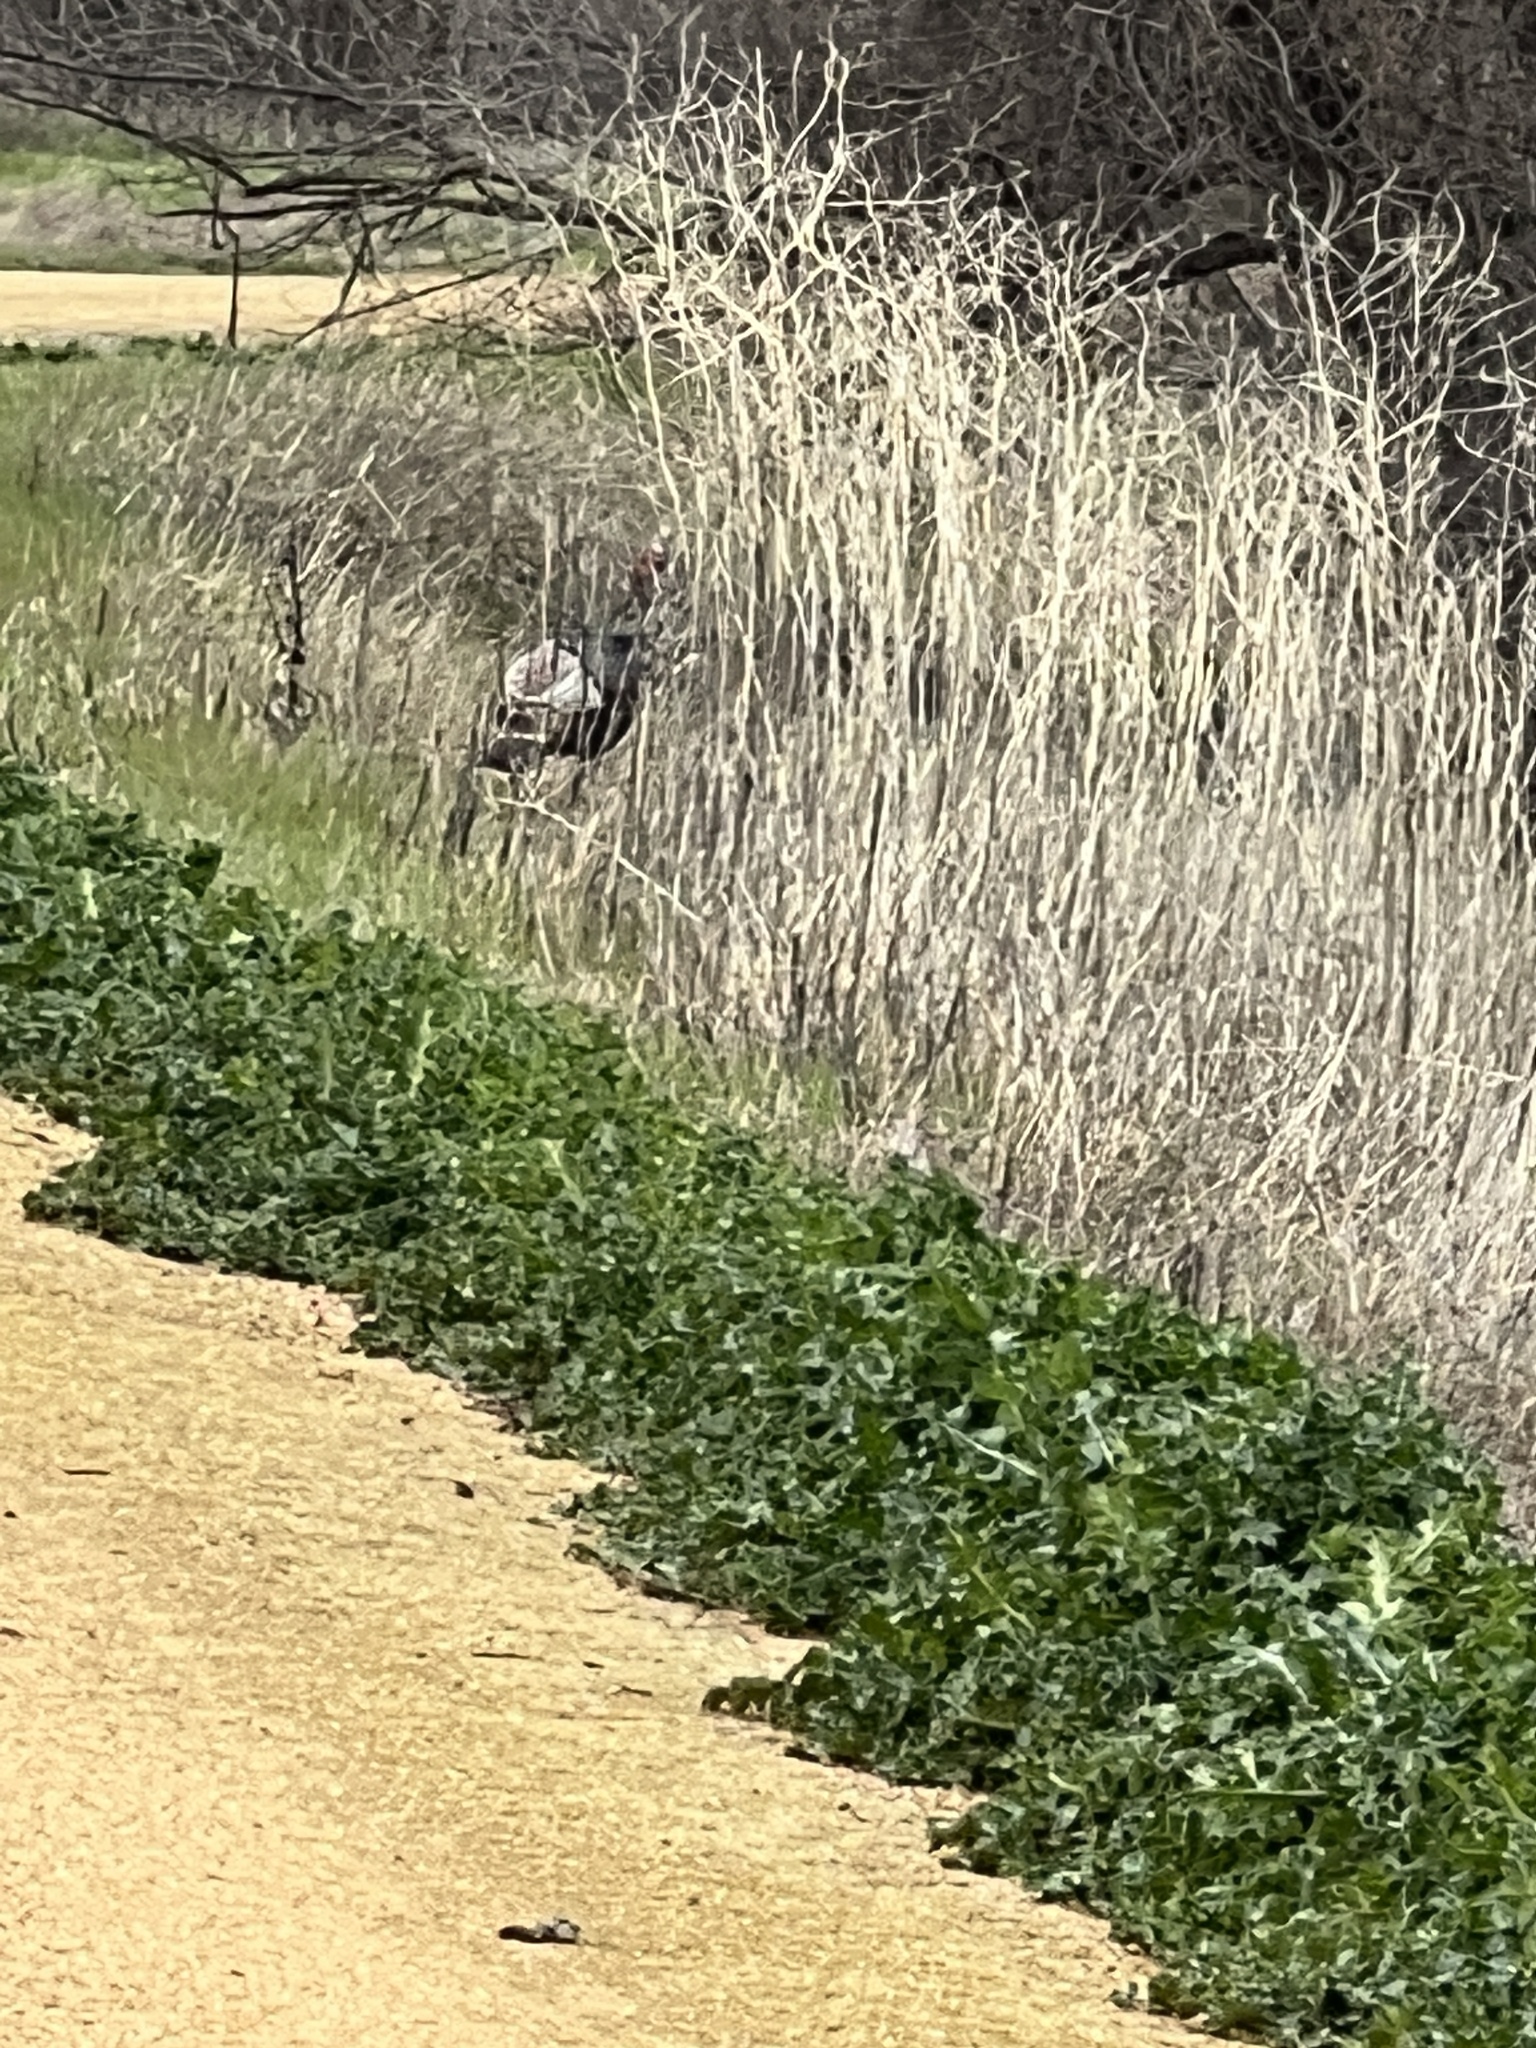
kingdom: Animalia
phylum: Chordata
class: Aves
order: Galliformes
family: Phasianidae
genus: Meleagris
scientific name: Meleagris gallopavo
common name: Wild turkey
